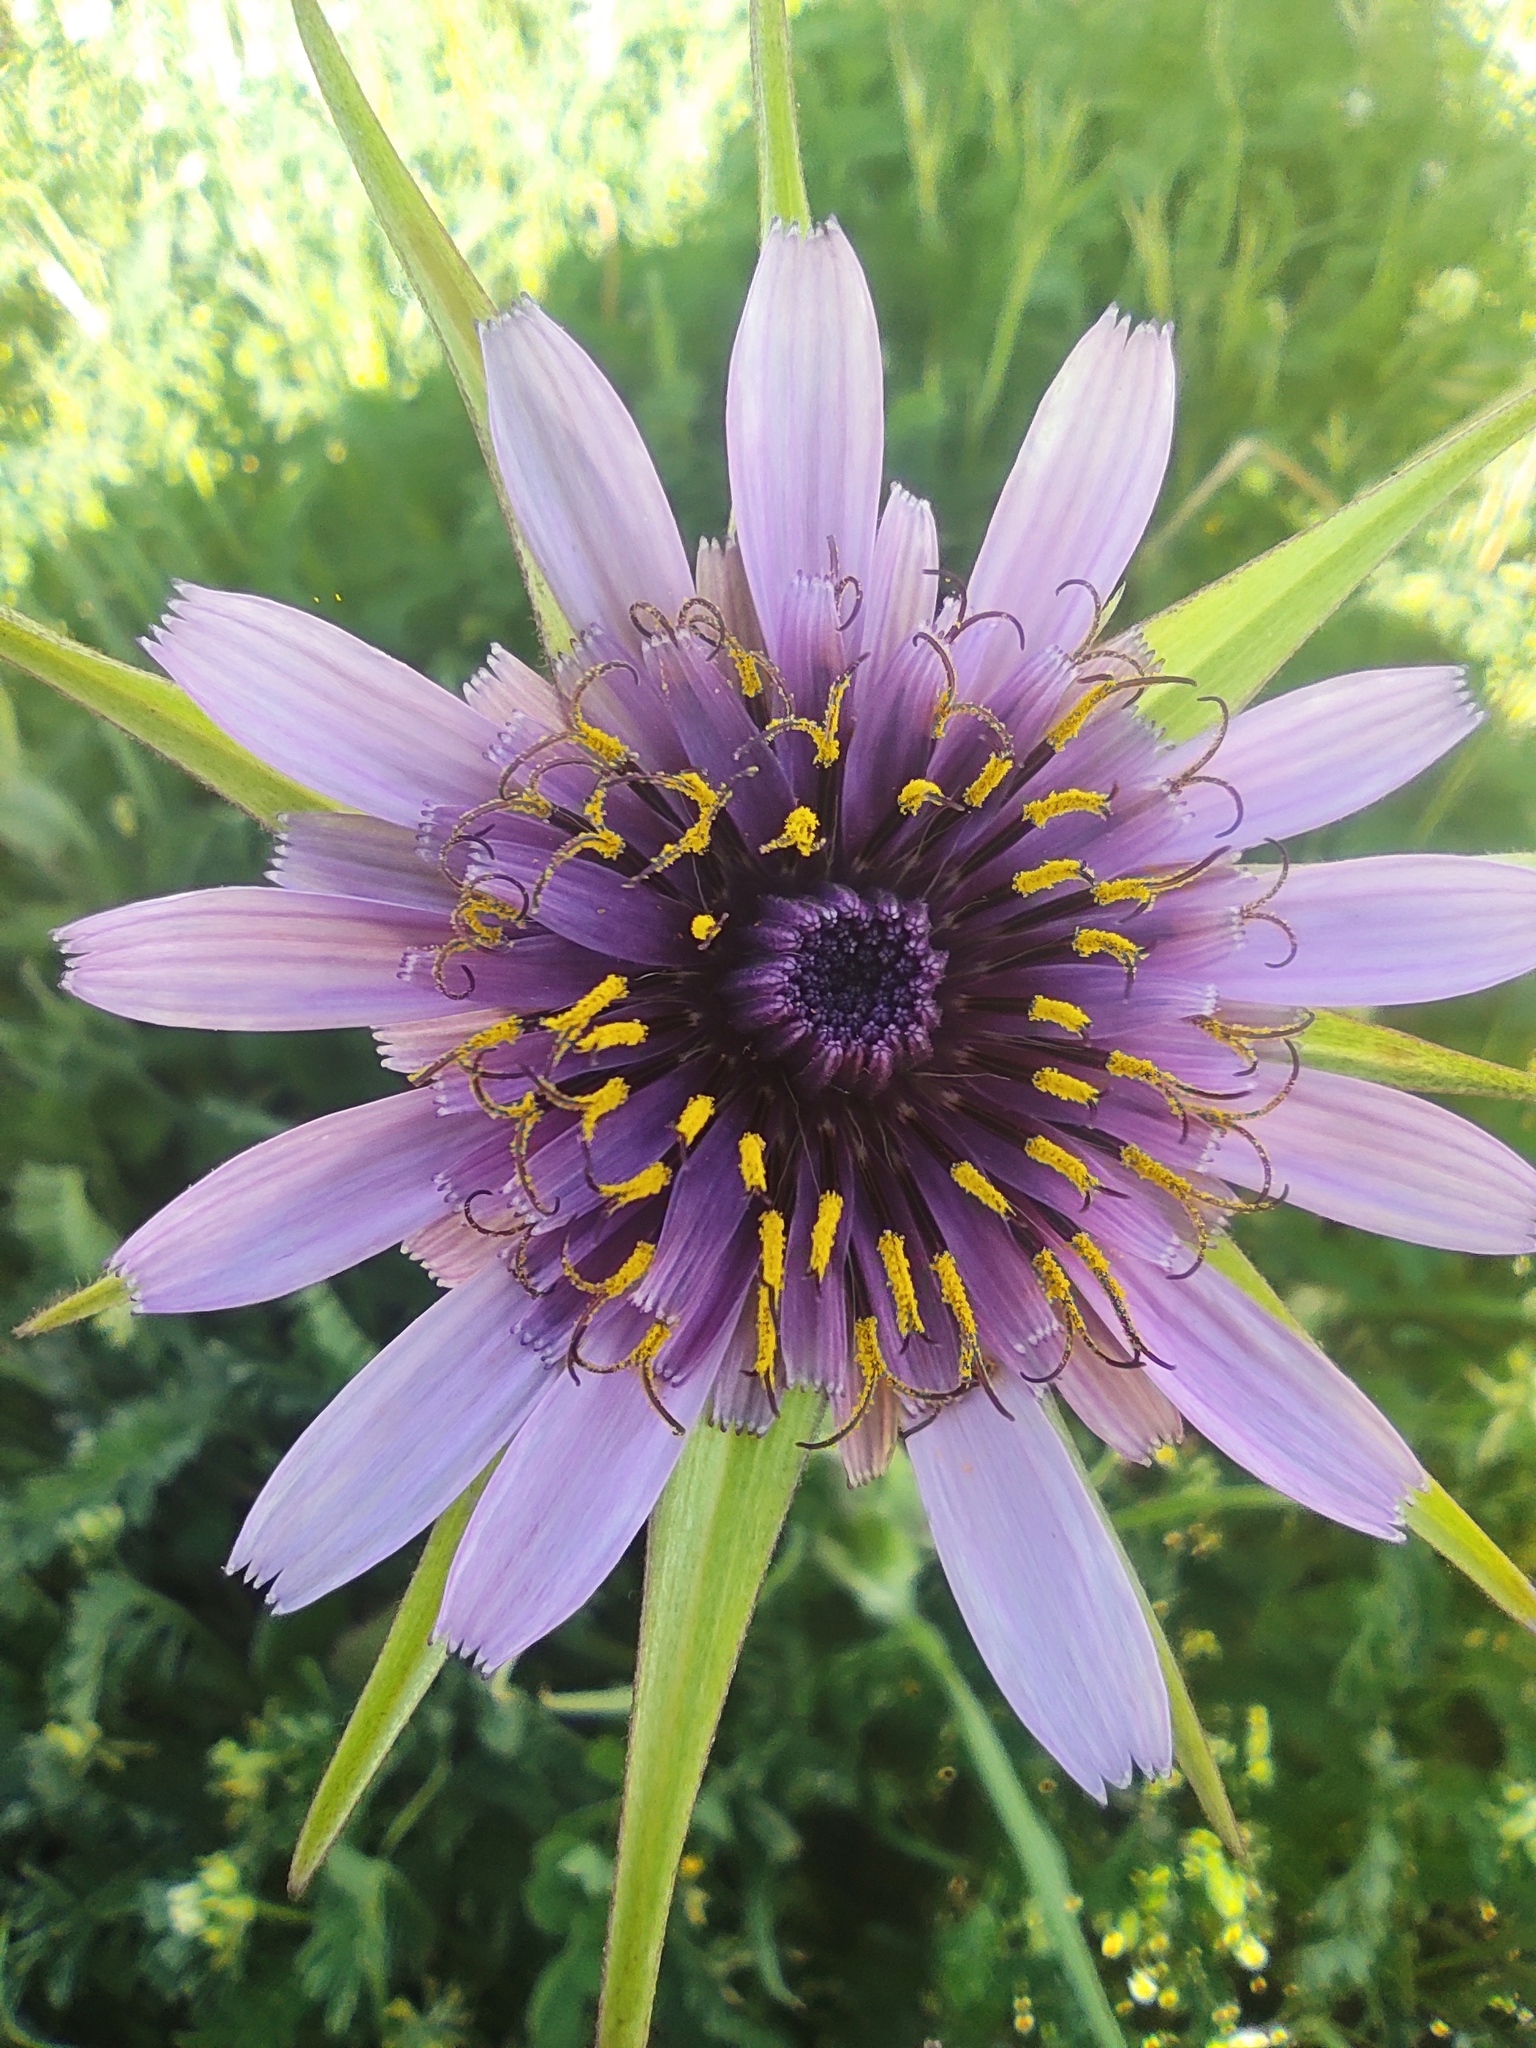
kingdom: Plantae
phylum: Tracheophyta
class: Magnoliopsida
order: Asterales
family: Asteraceae
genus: Tragopogon
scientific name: Tragopogon porrifolius
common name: Salsify
